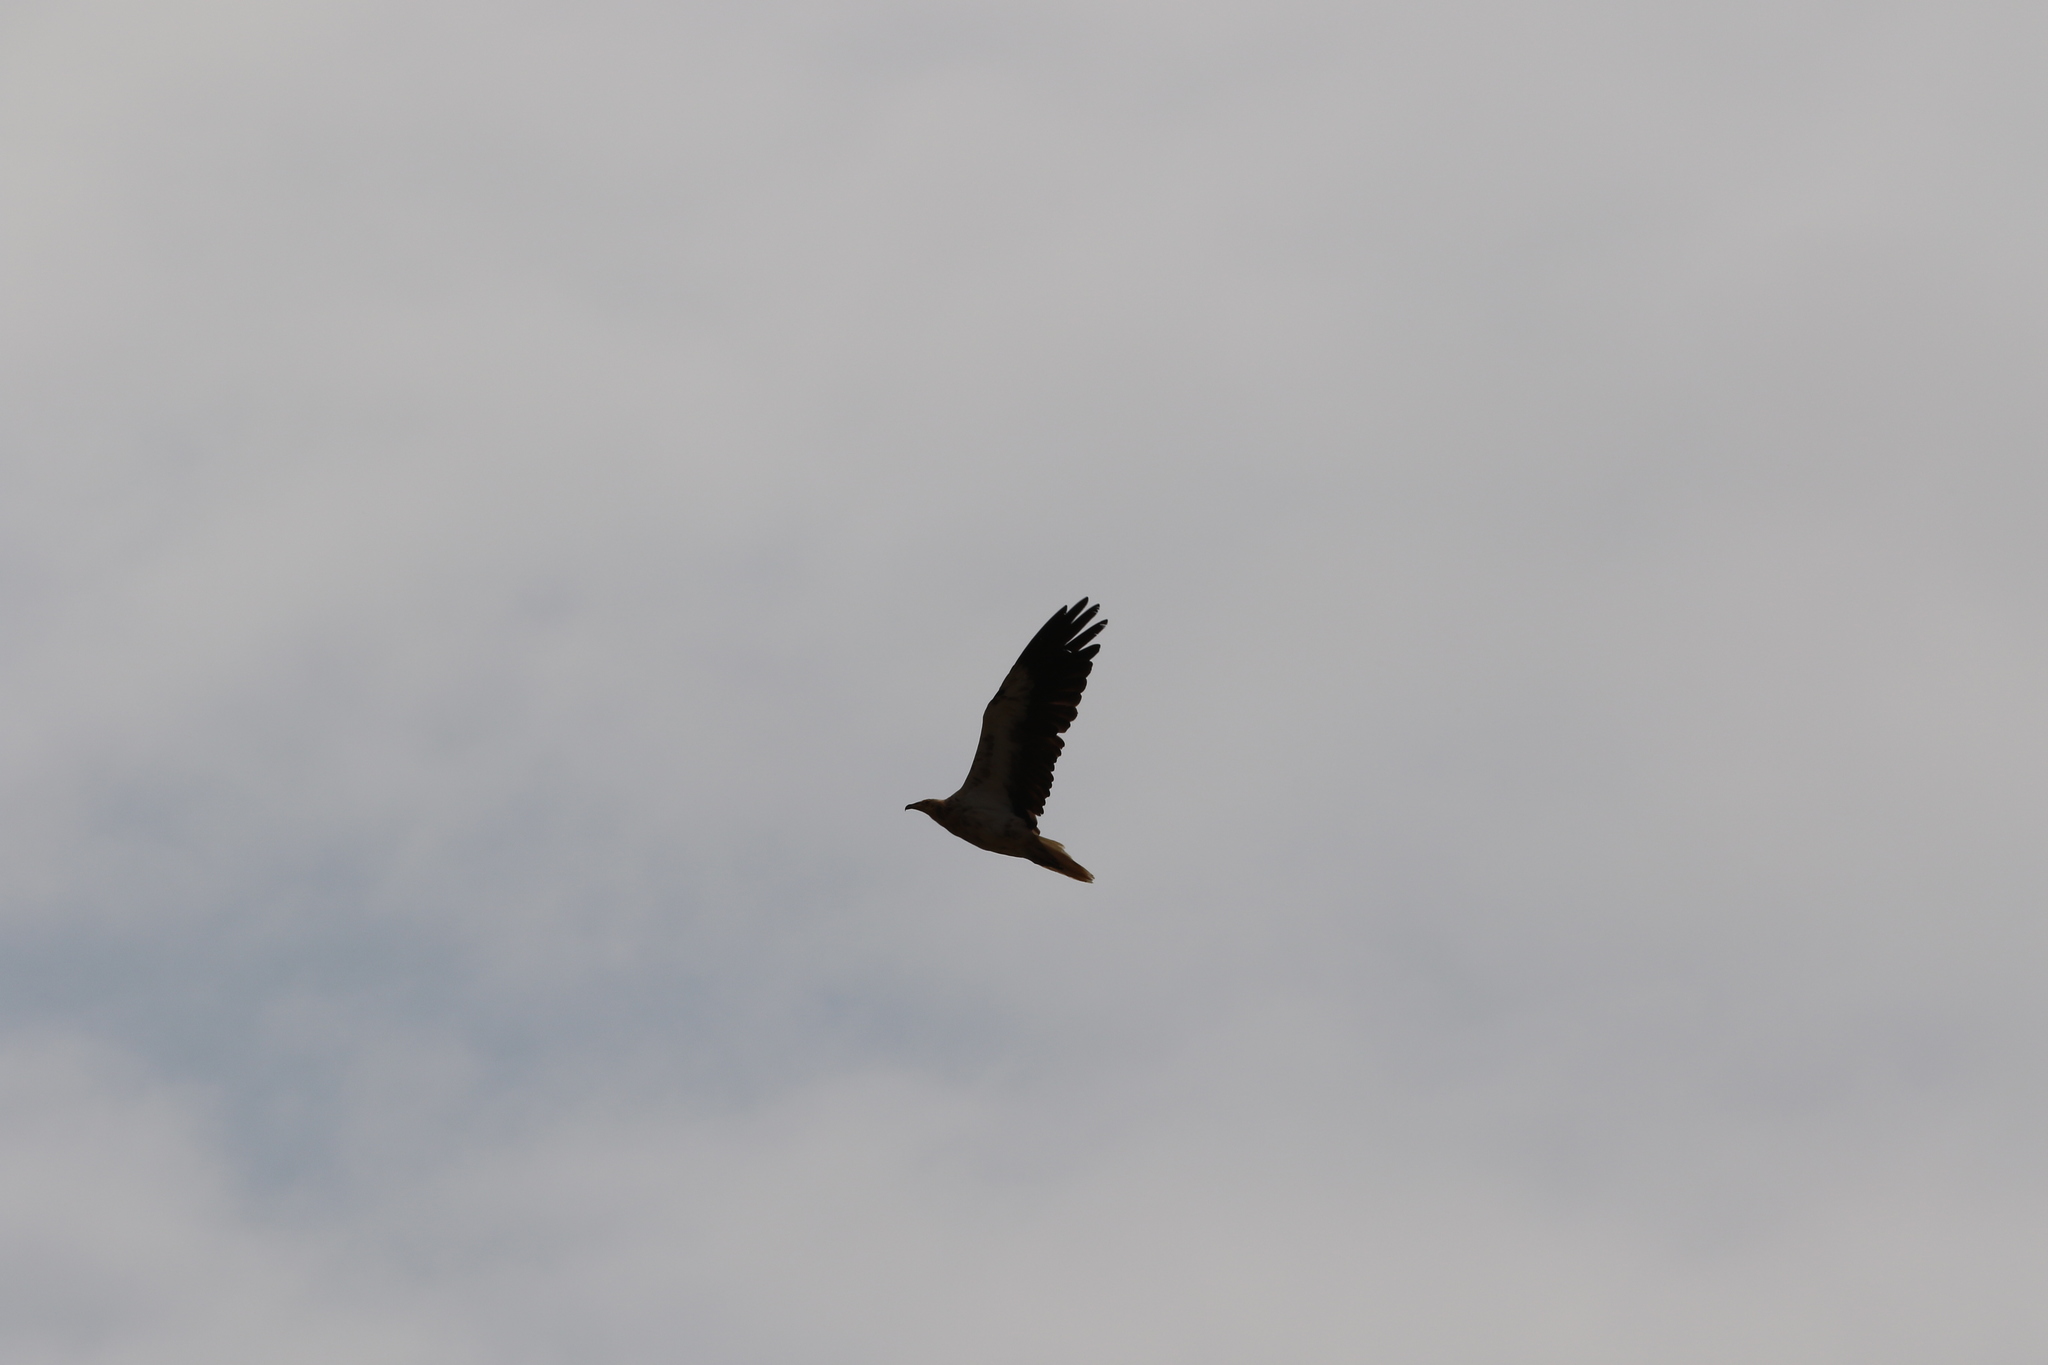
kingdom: Animalia
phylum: Chordata
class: Aves
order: Accipitriformes
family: Accipitridae
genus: Neophron
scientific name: Neophron percnopterus
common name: Egyptian vulture
